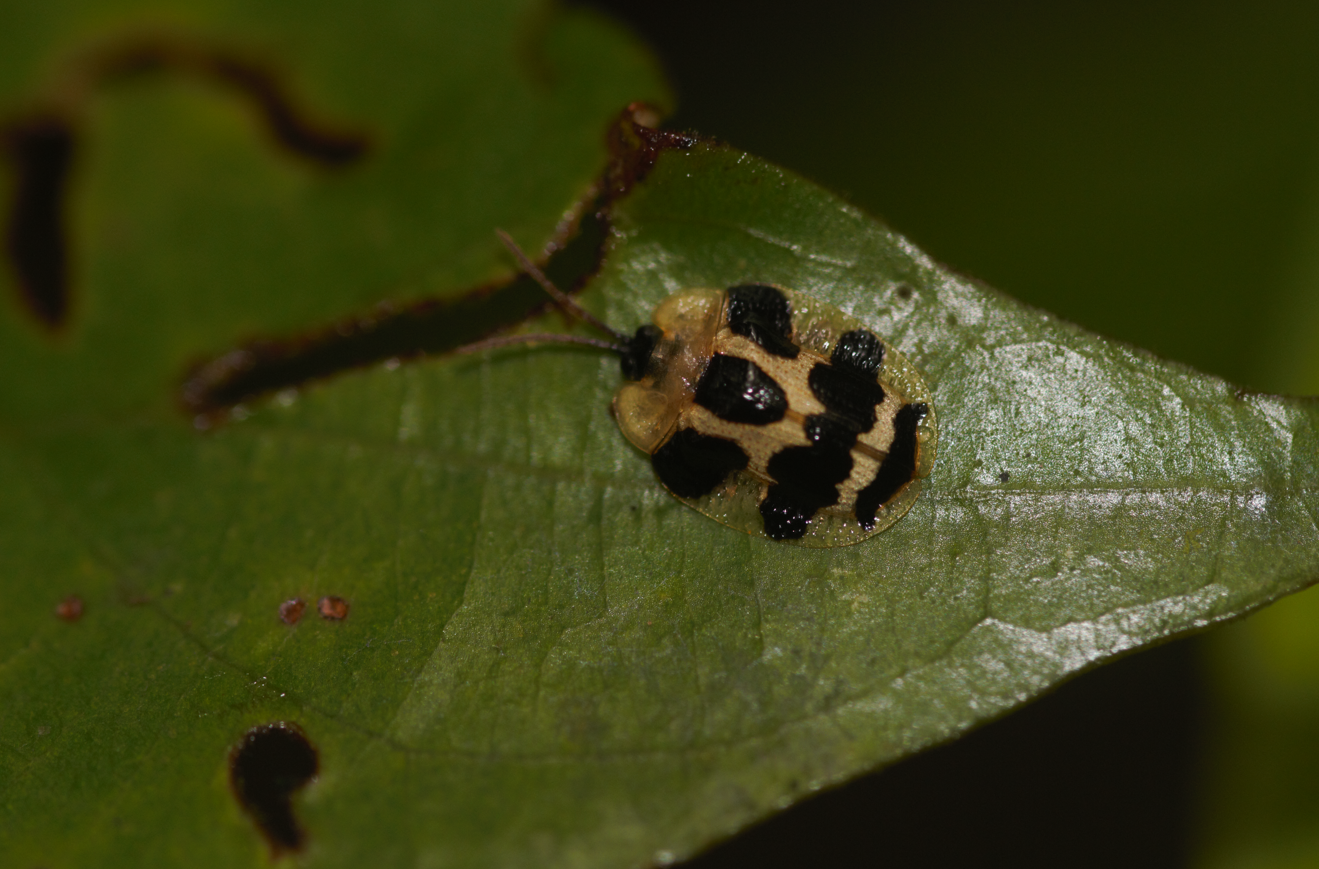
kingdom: Animalia
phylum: Arthropoda
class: Insecta
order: Coleoptera
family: Chrysomelidae
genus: Aslamidium
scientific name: Aslamidium
